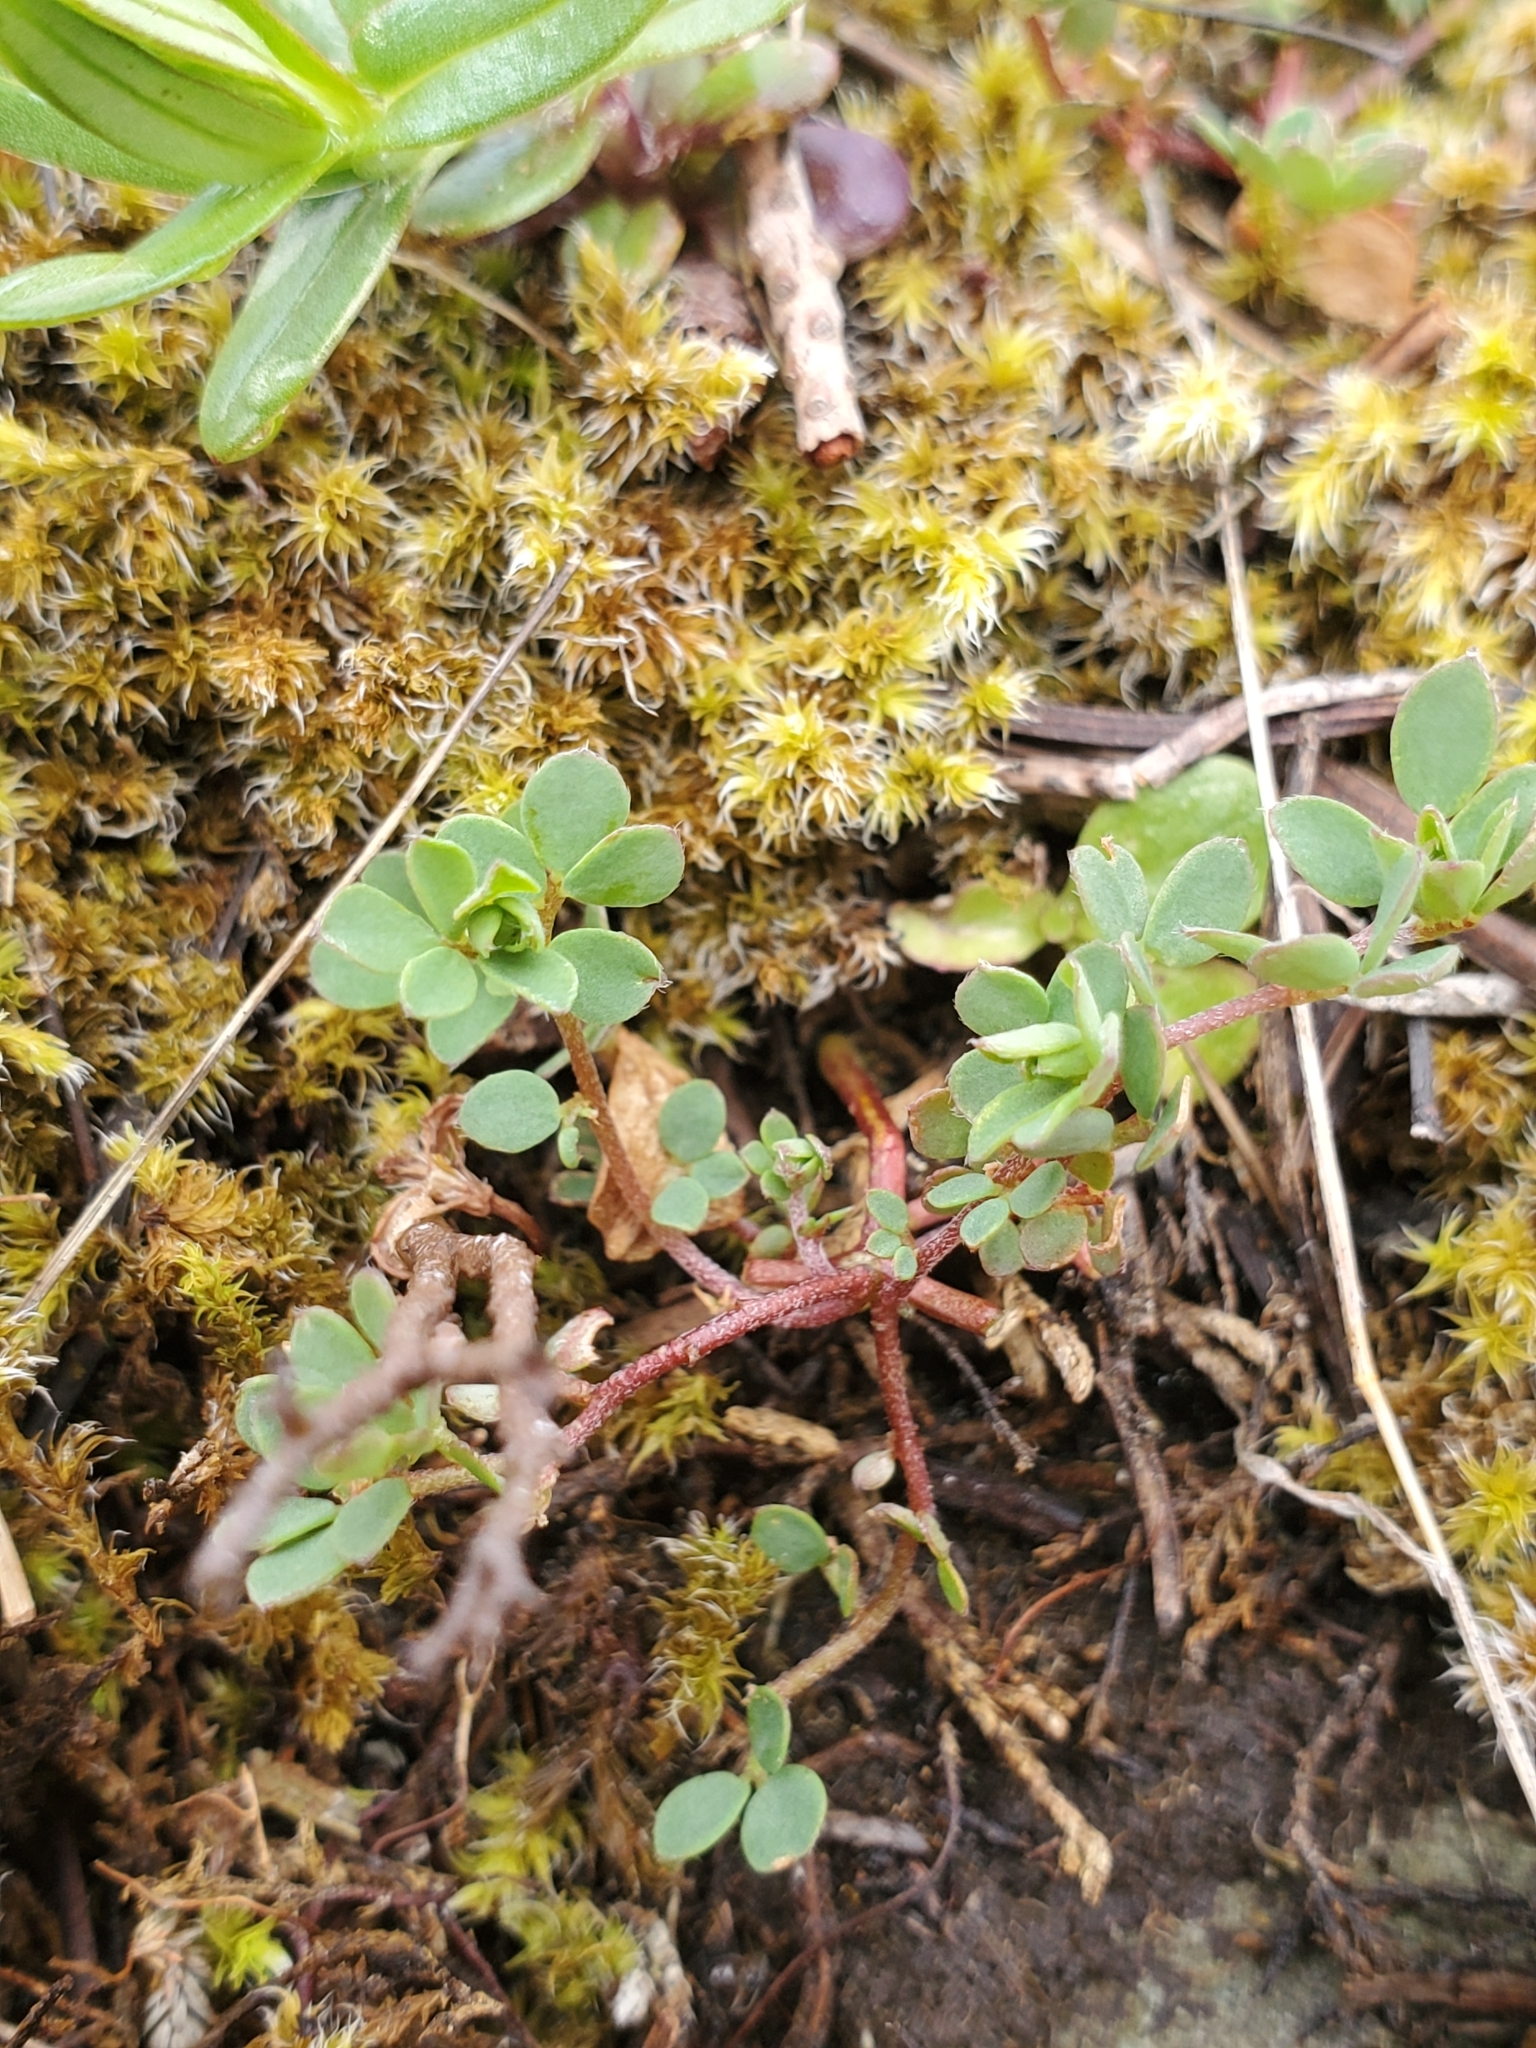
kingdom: Plantae
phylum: Tracheophyta
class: Magnoliopsida
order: Fabales
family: Fabaceae
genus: Acmispon
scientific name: Acmispon parviflorus
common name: Desert deer-vetch
